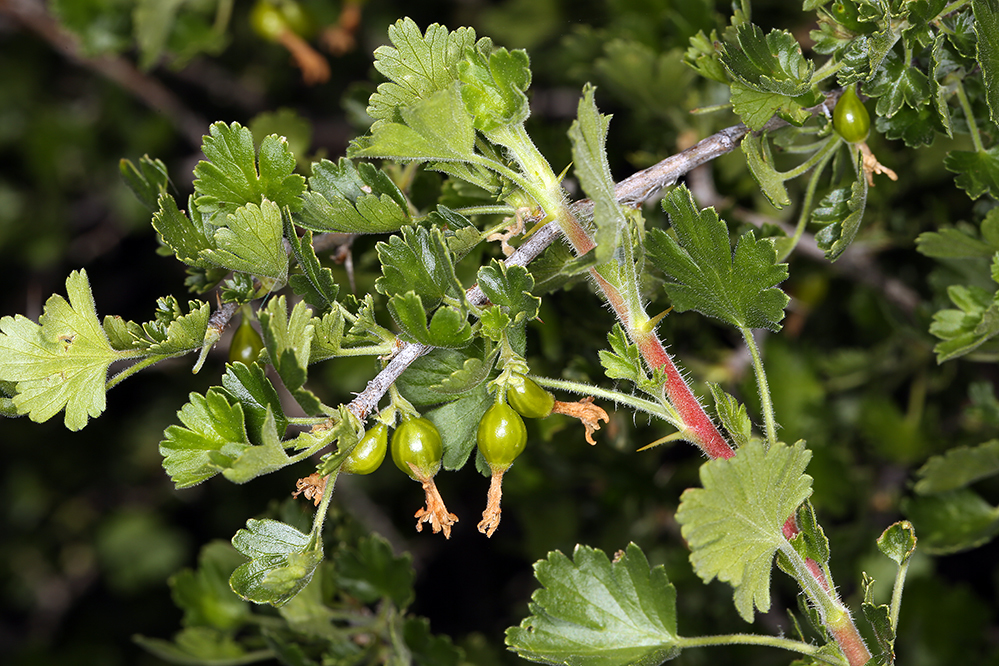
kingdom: Plantae
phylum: Tracheophyta
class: Magnoliopsida
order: Saxifragales
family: Grossulariaceae
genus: Ribes
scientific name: Ribes quercetorum
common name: Oak gooseberry
